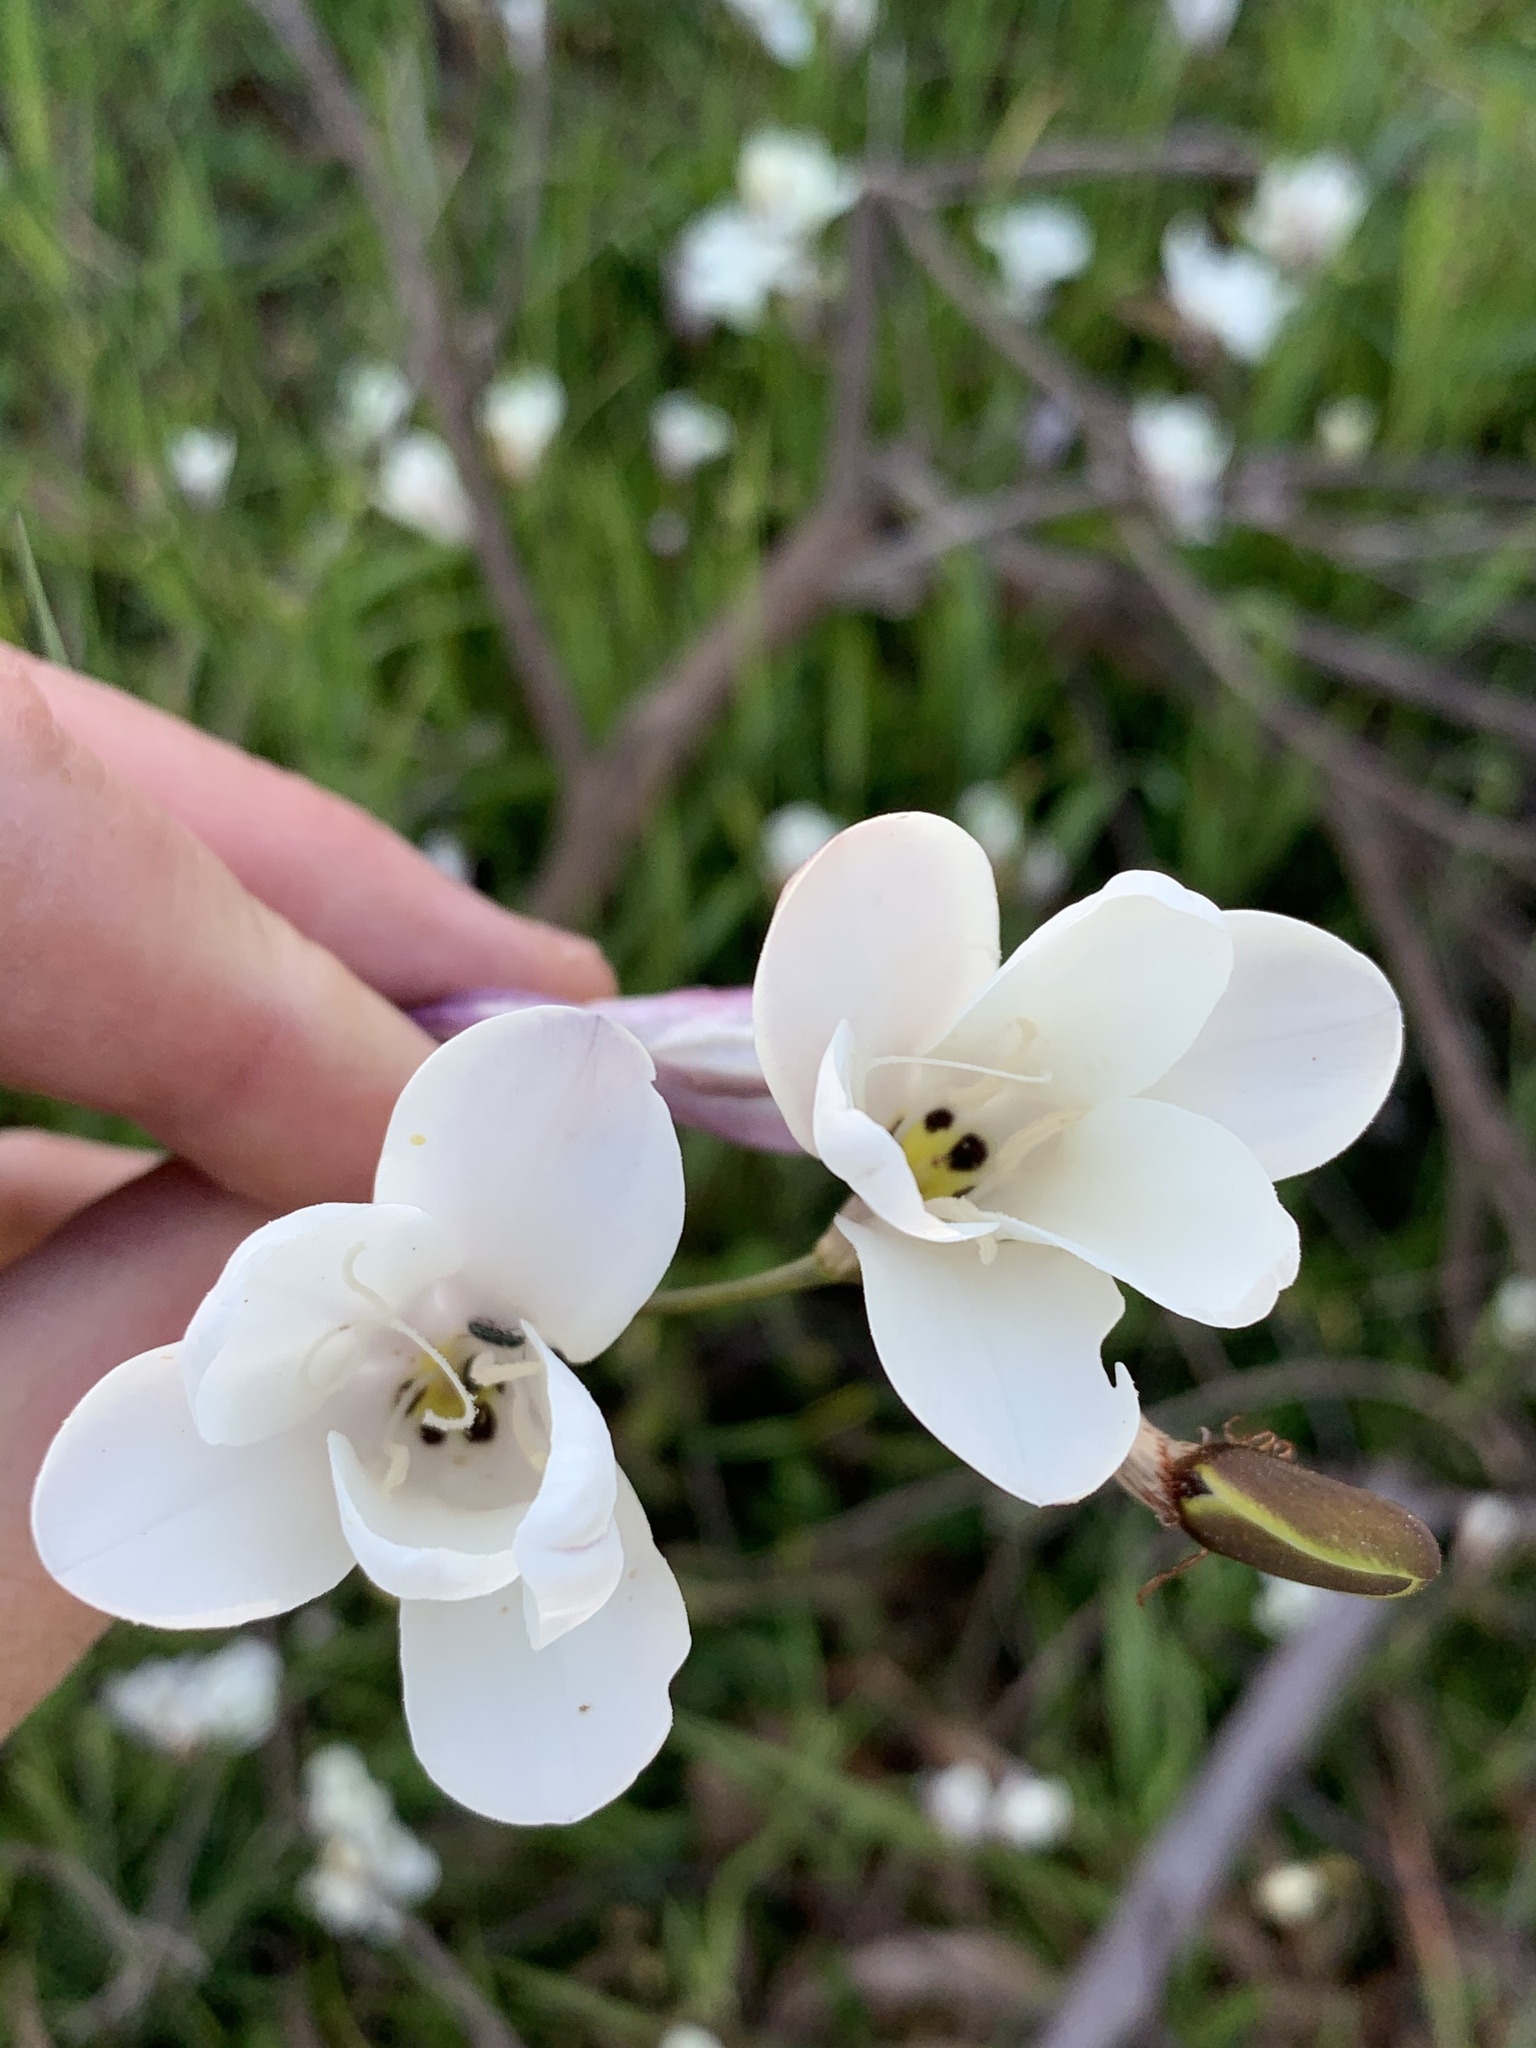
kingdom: Plantae
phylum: Tracheophyta
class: Liliopsida
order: Asparagales
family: Iridaceae
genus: Sparaxis
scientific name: Sparaxis grandiflora
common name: Plain harlequin-flower
